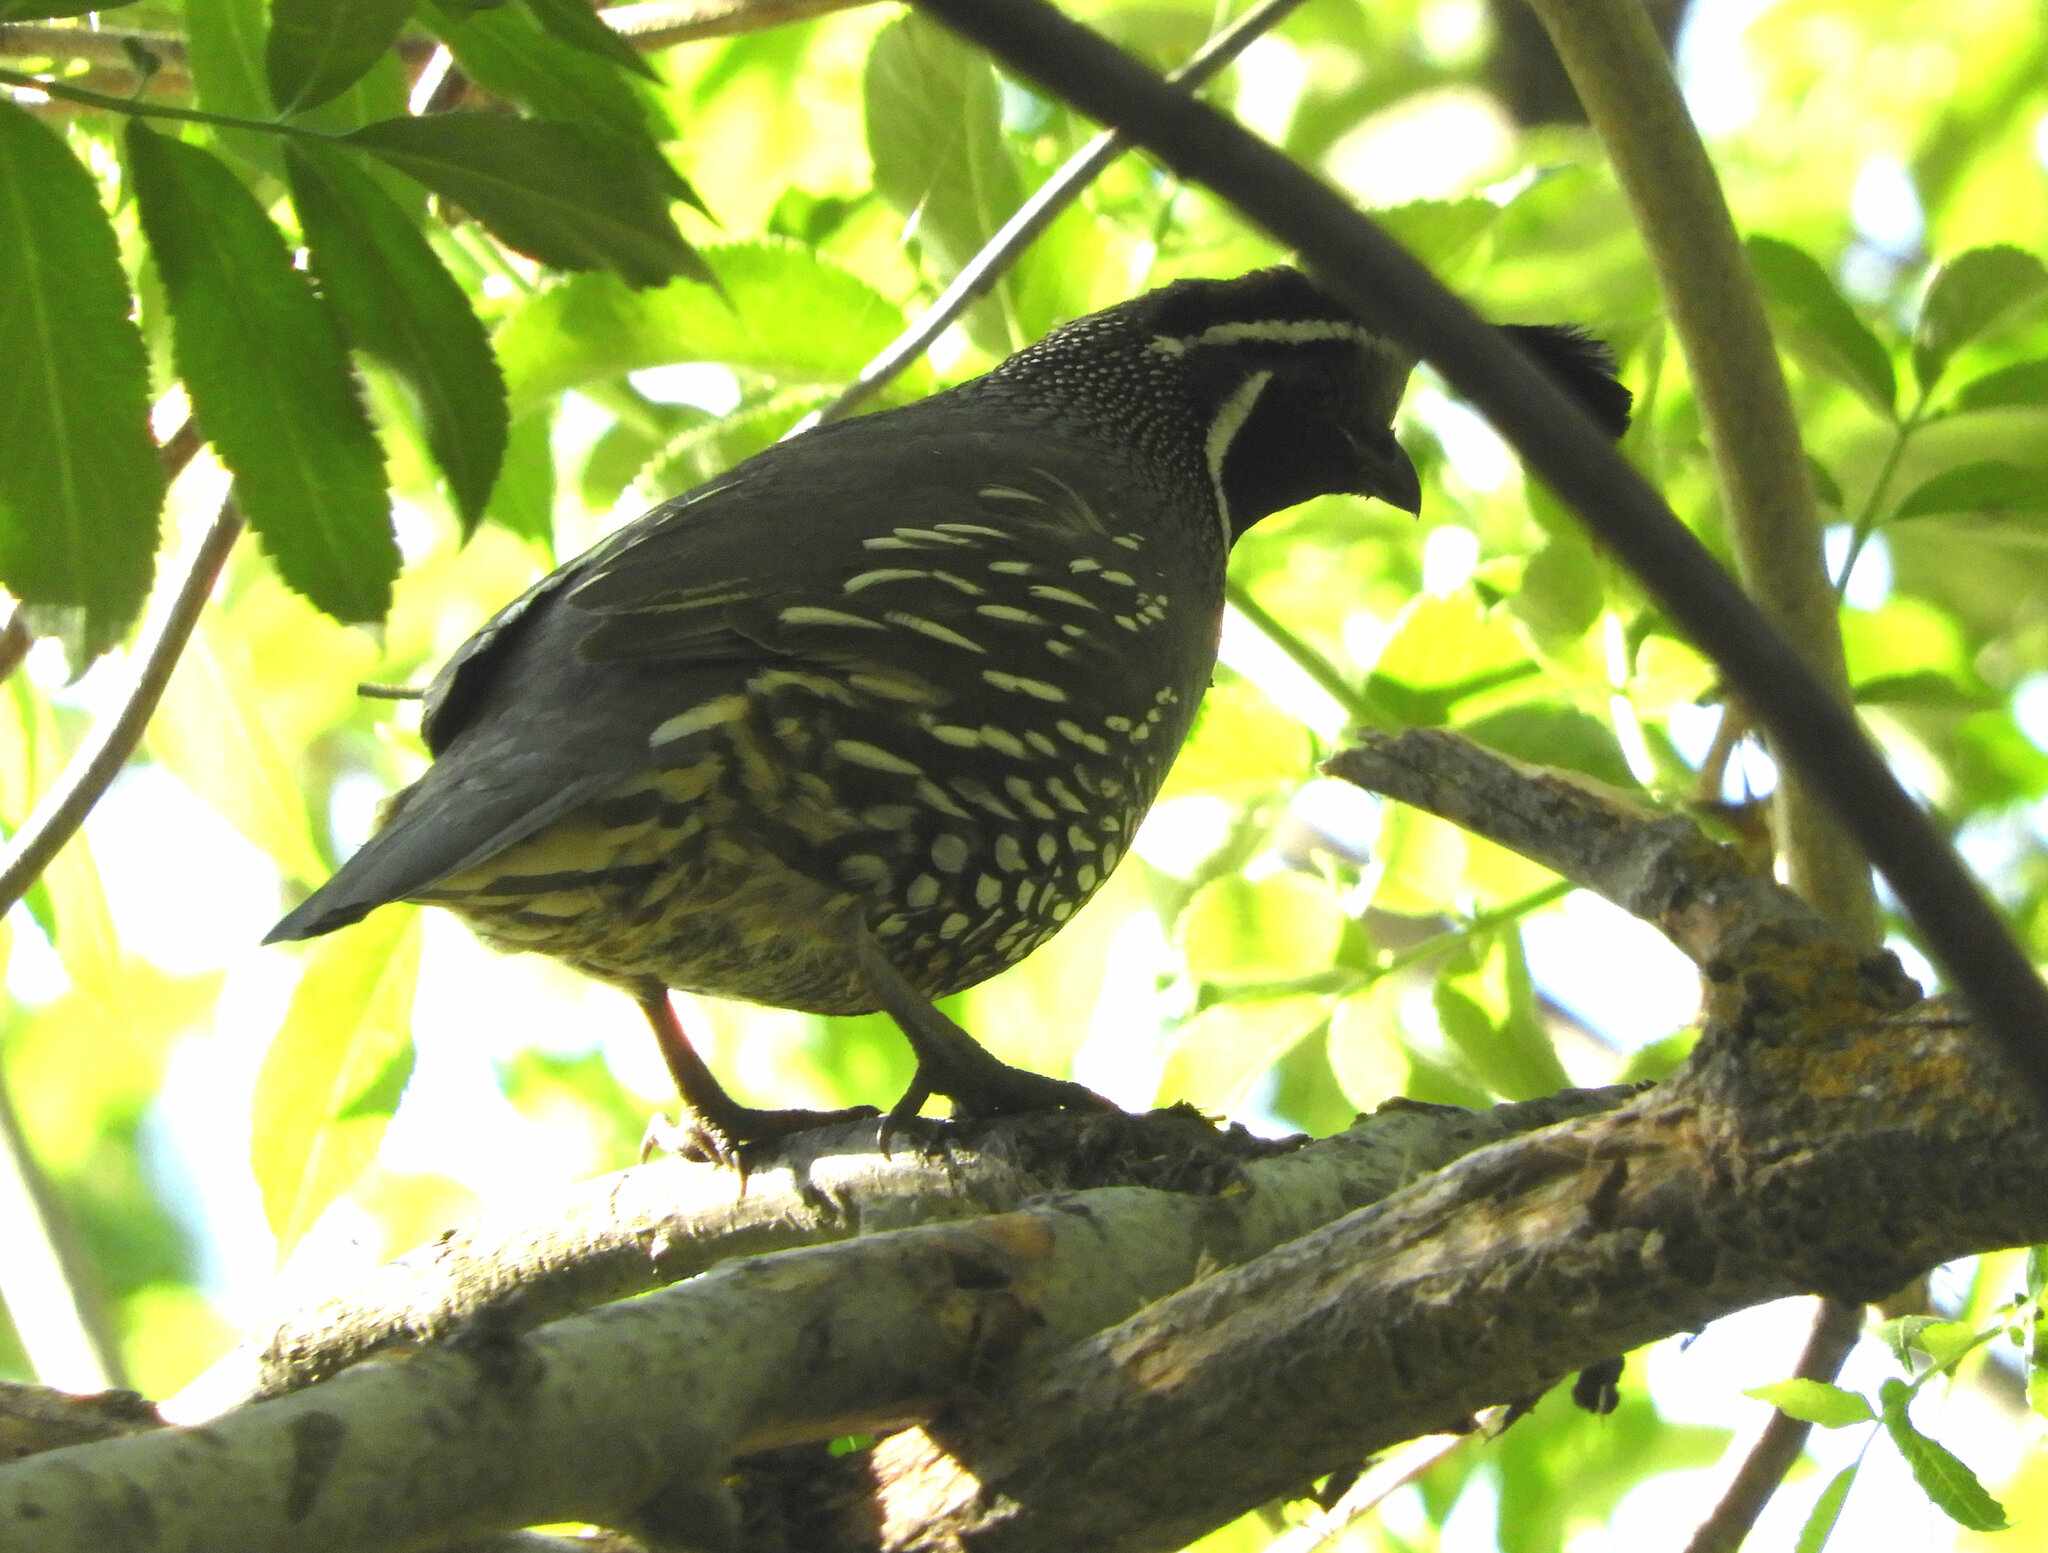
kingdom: Animalia
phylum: Chordata
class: Aves
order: Galliformes
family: Odontophoridae
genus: Callipepla
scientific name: Callipepla californica
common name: California quail
